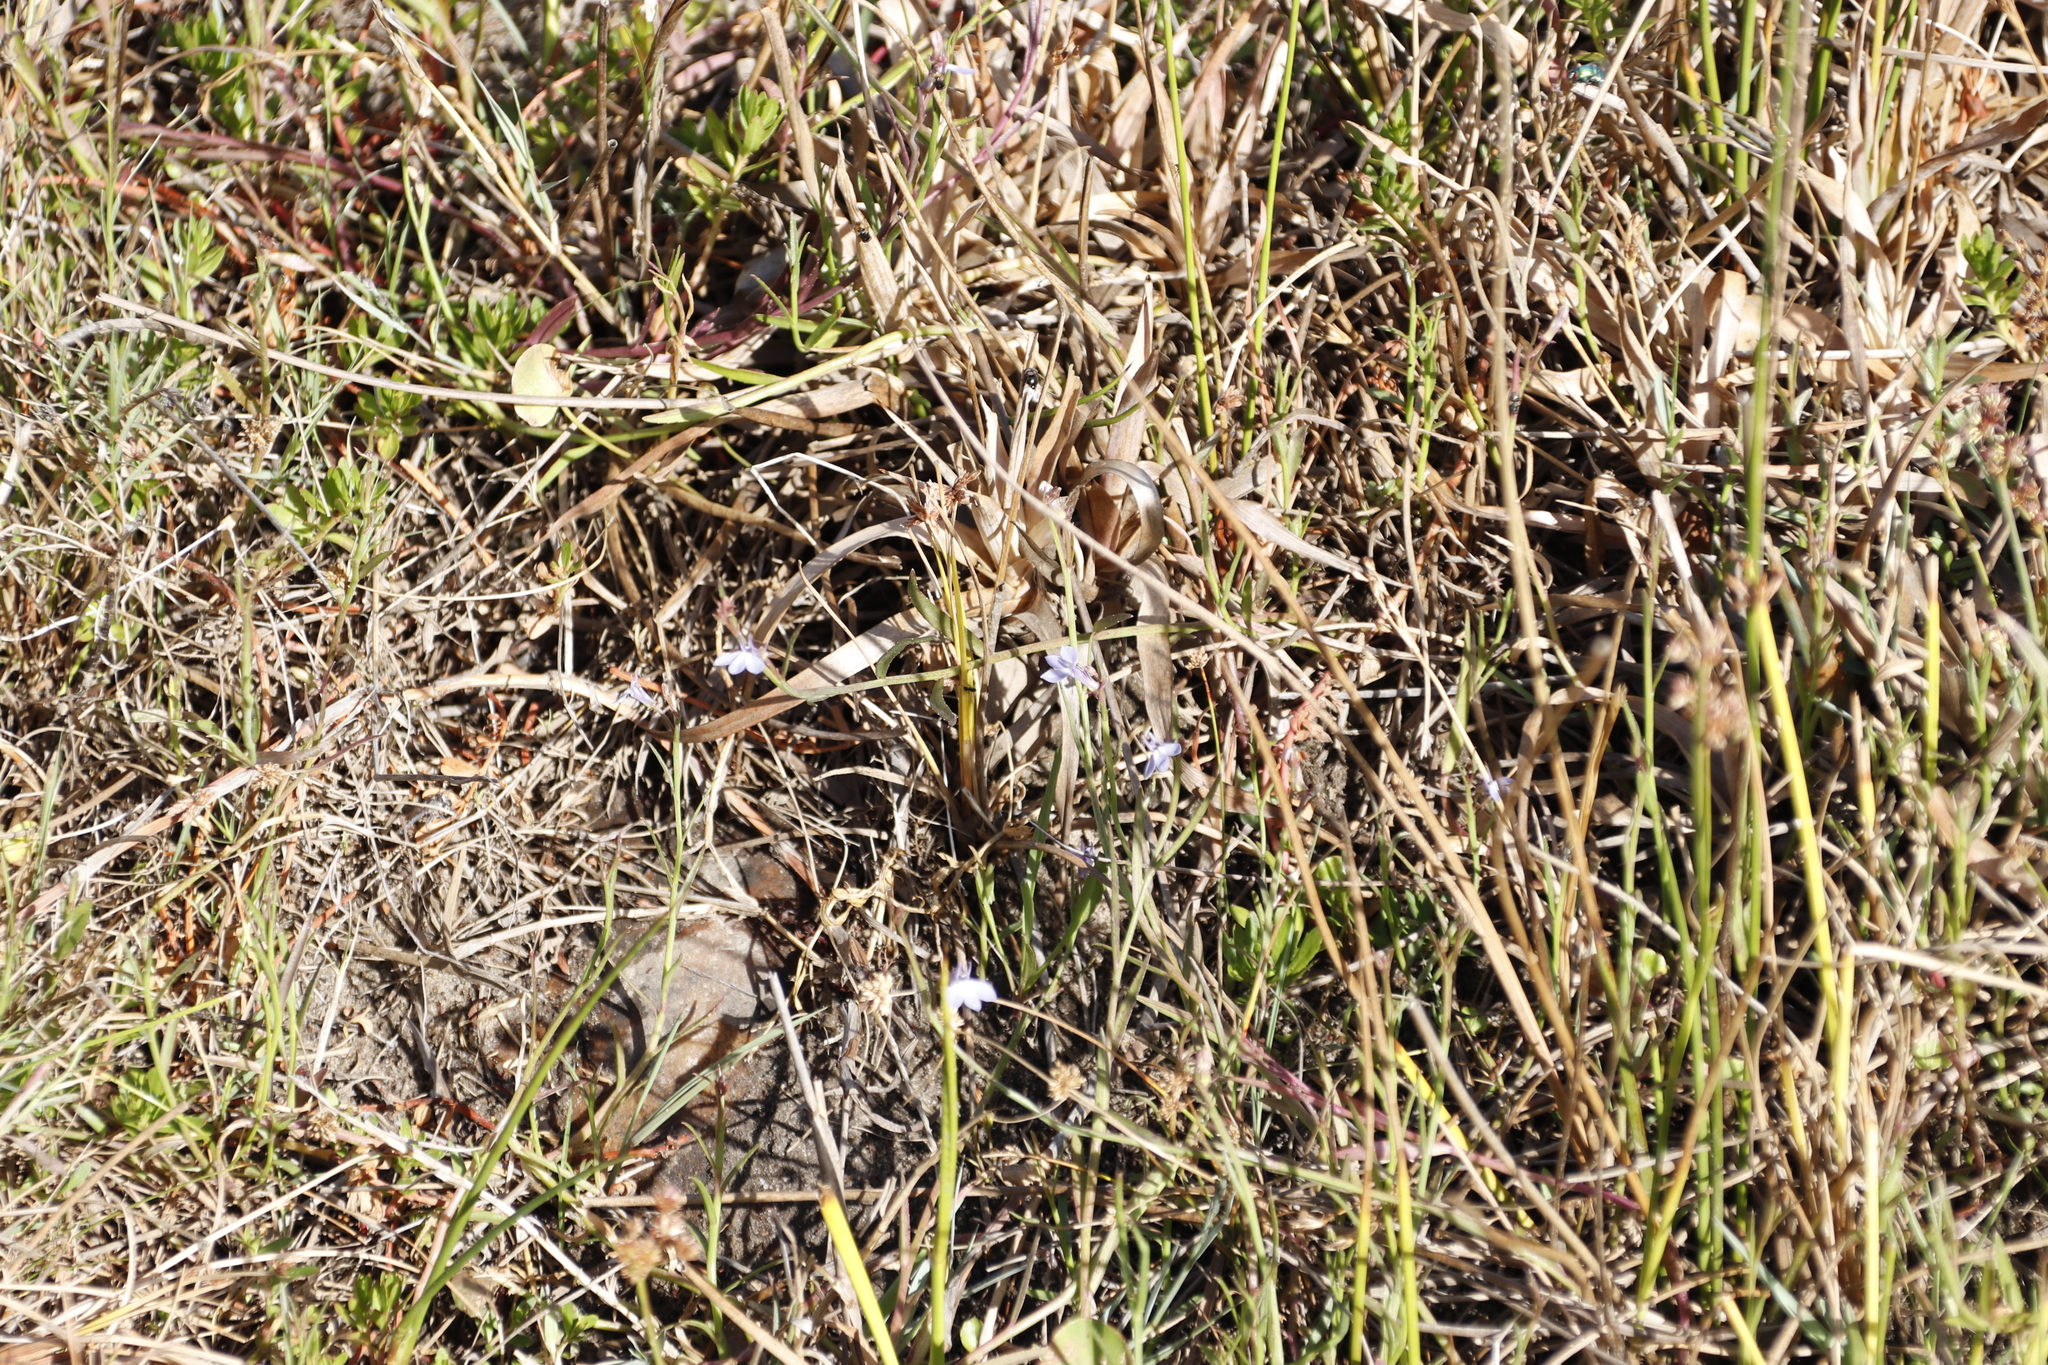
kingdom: Plantae
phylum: Tracheophyta
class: Magnoliopsida
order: Asterales
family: Campanulaceae
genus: Grammatotheca
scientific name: Grammatotheca bergiana
